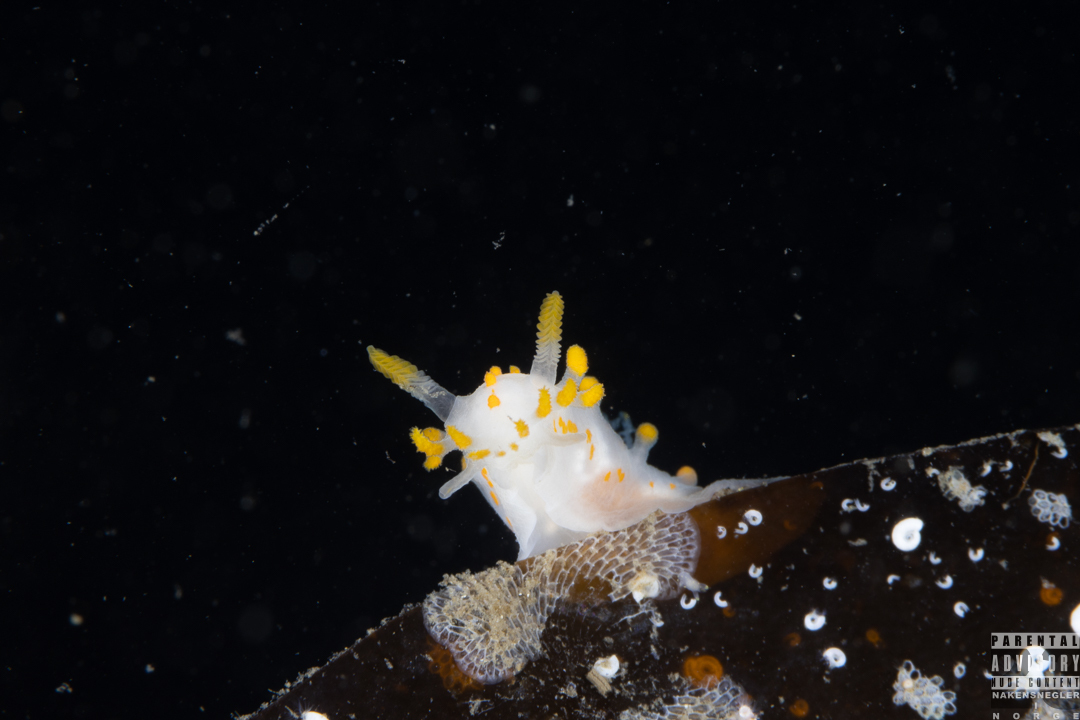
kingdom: Animalia
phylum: Mollusca
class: Gastropoda
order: Nudibranchia
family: Polyceridae
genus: Limacia
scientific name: Limacia clavigera
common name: Orange-clubbed sea slug
